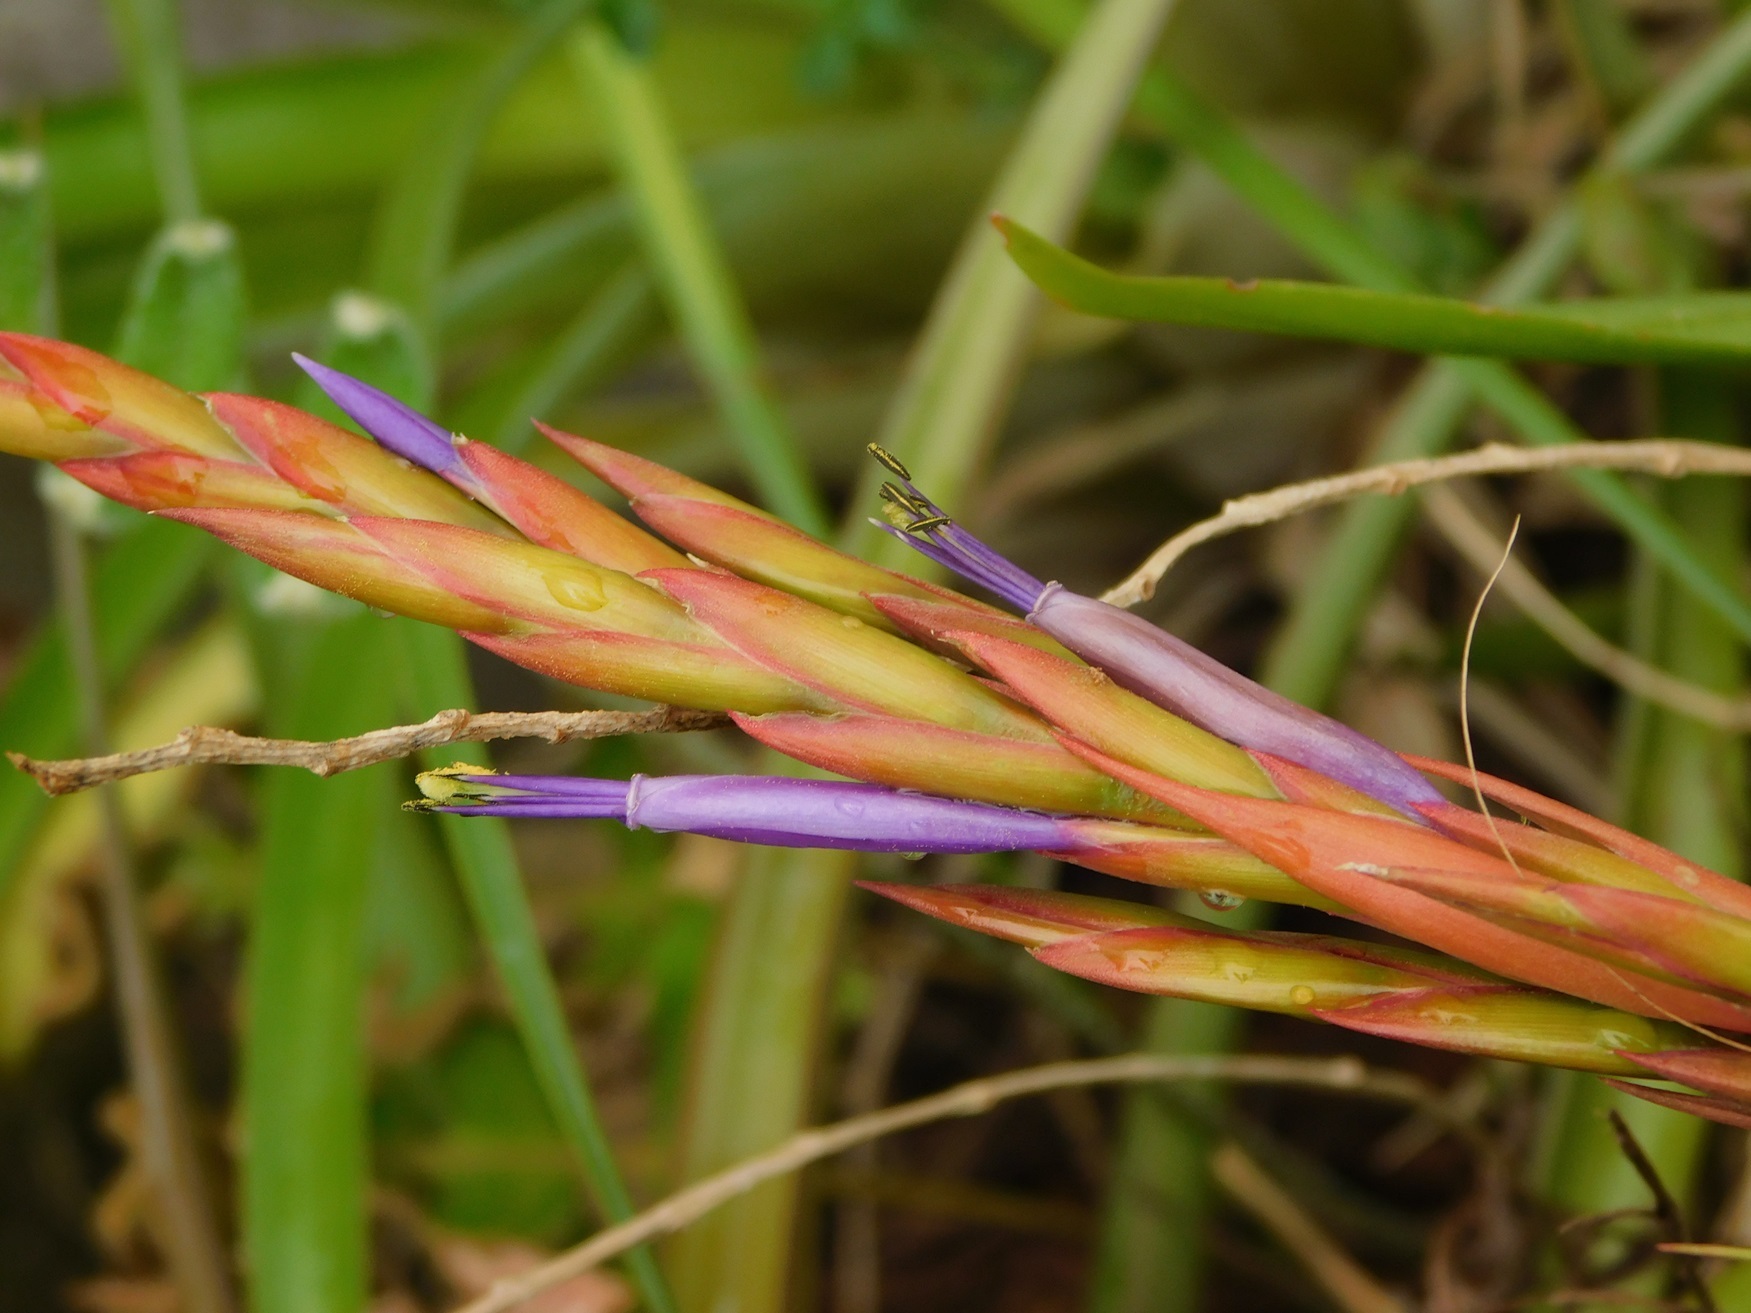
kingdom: Plantae
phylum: Tracheophyta
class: Liliopsida
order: Poales
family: Bromeliaceae
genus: Tillandsia
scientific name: Tillandsia polystachia
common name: Airplant
